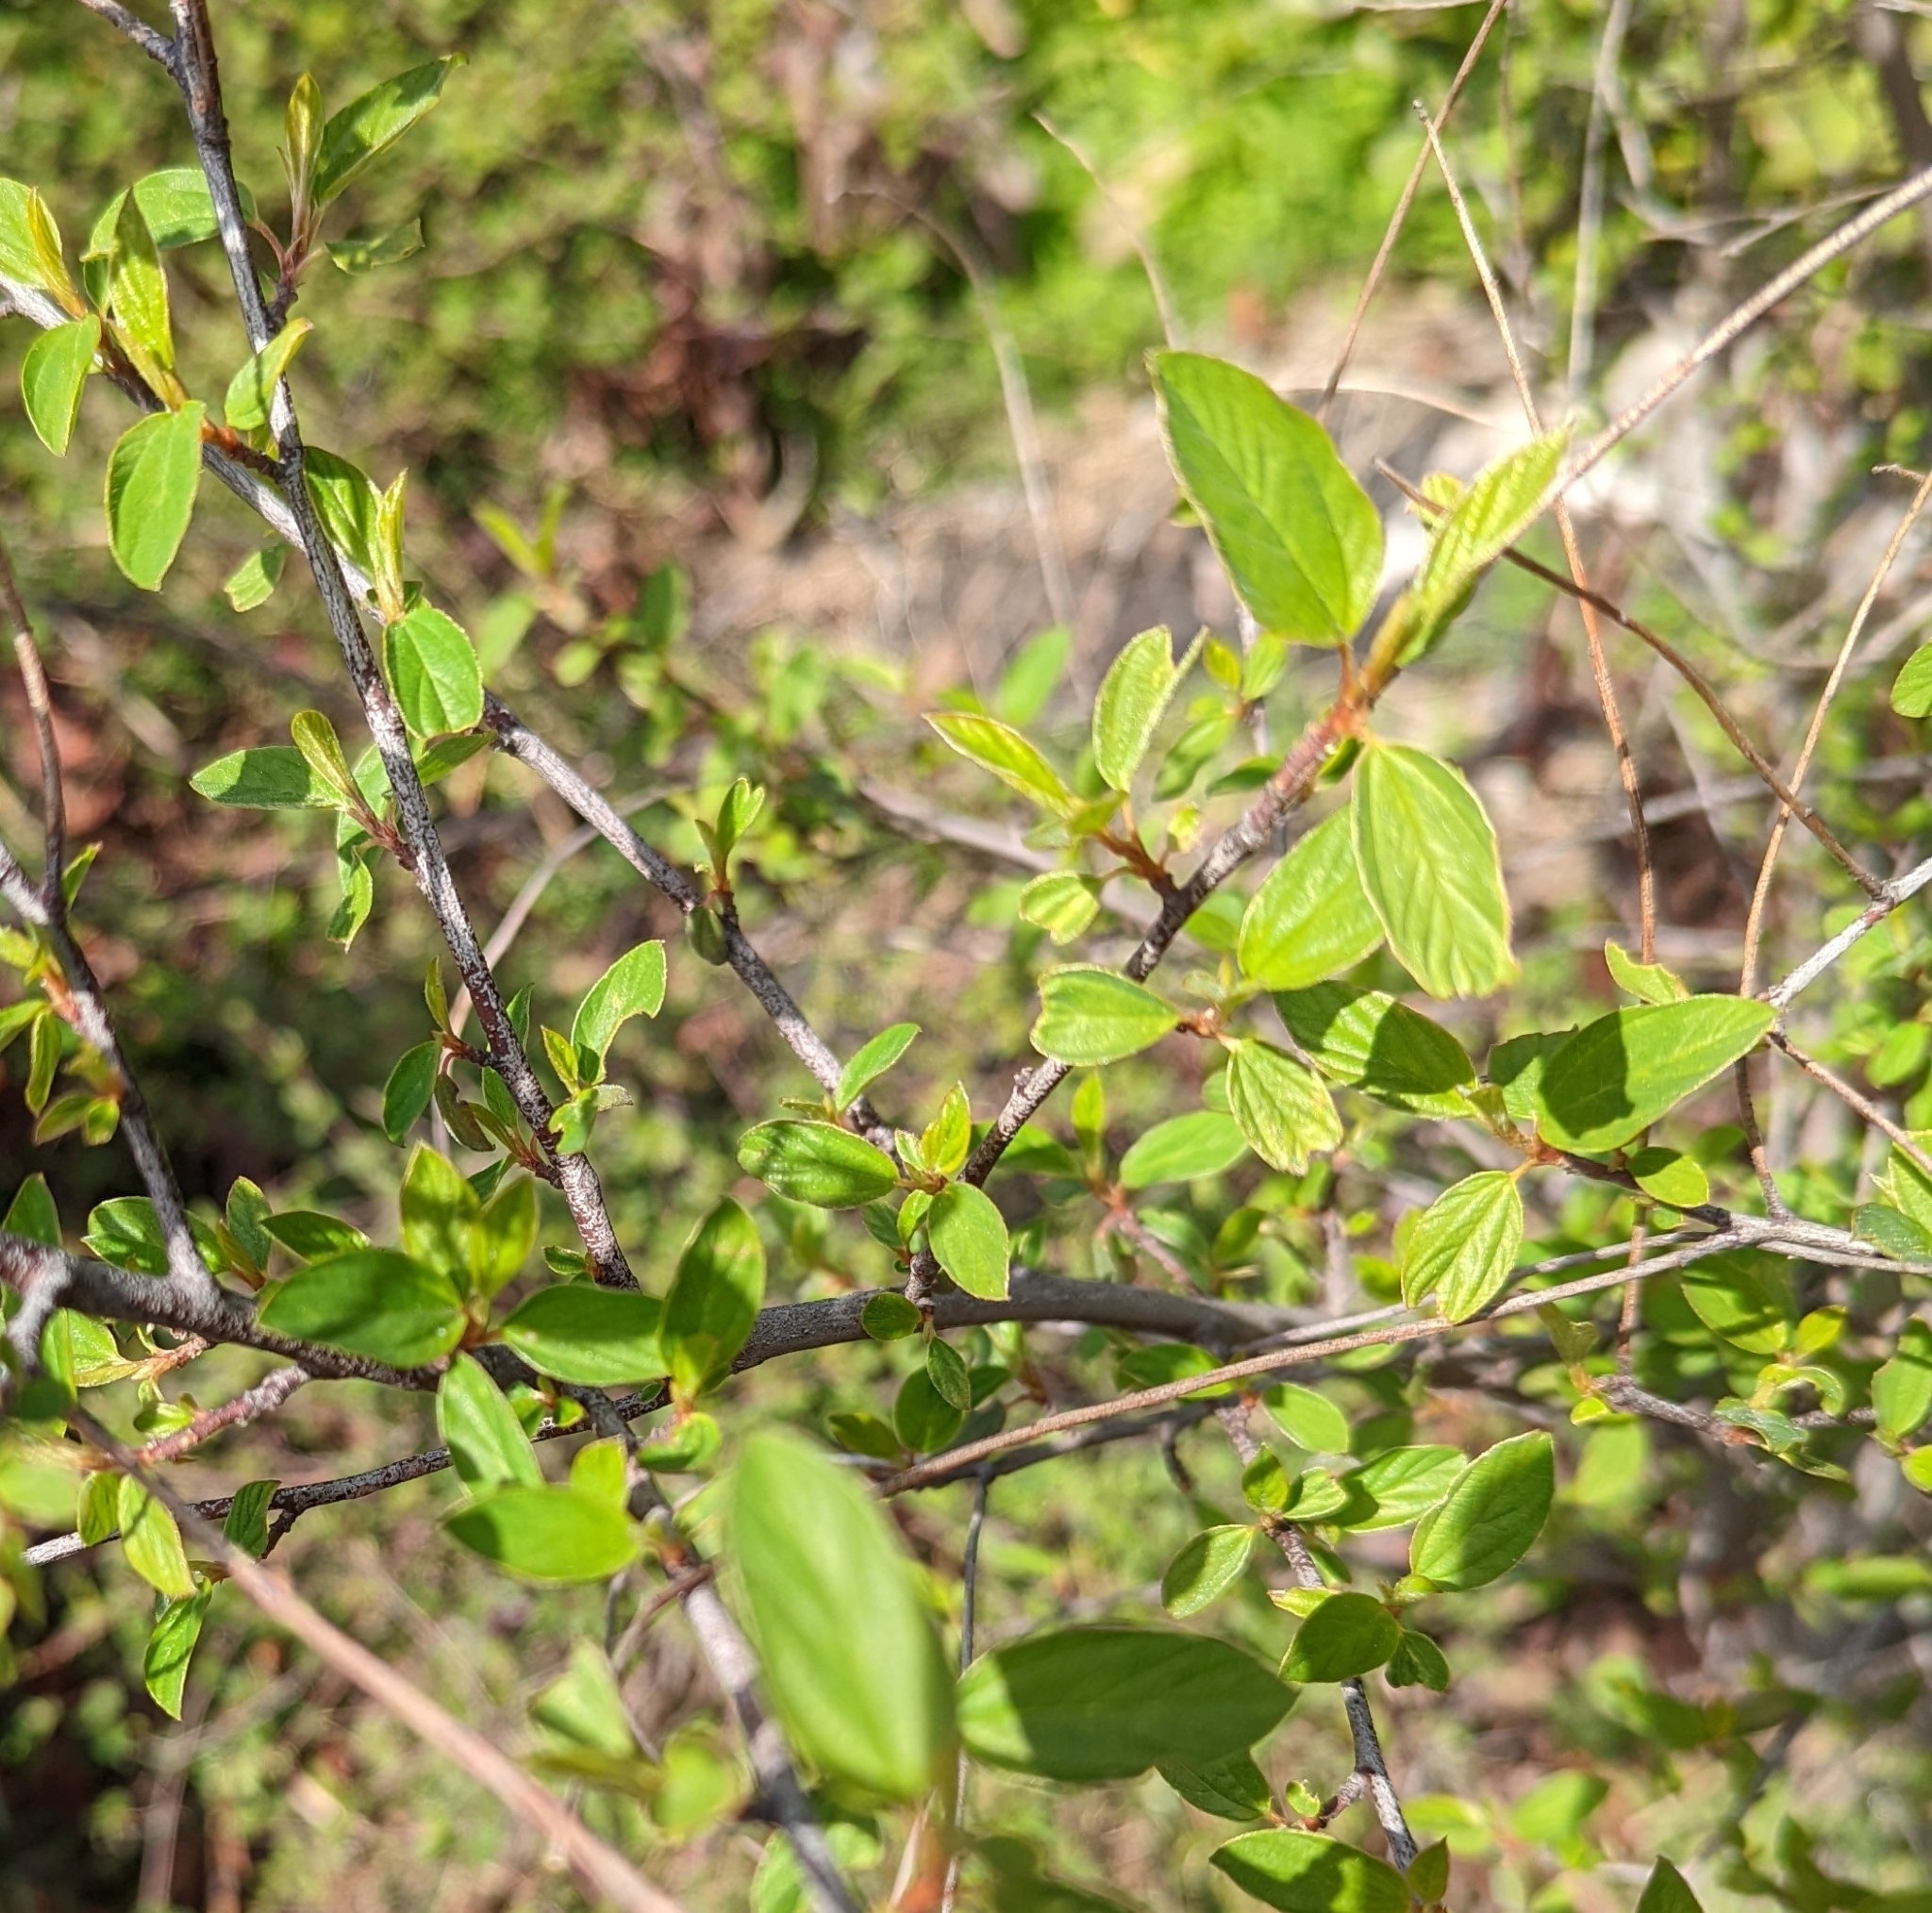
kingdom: Plantae
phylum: Tracheophyta
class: Magnoliopsida
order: Rosales
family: Rhamnaceae
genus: Ceanothus
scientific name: Ceanothus integerrimus
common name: Deerbrush ceanothus
